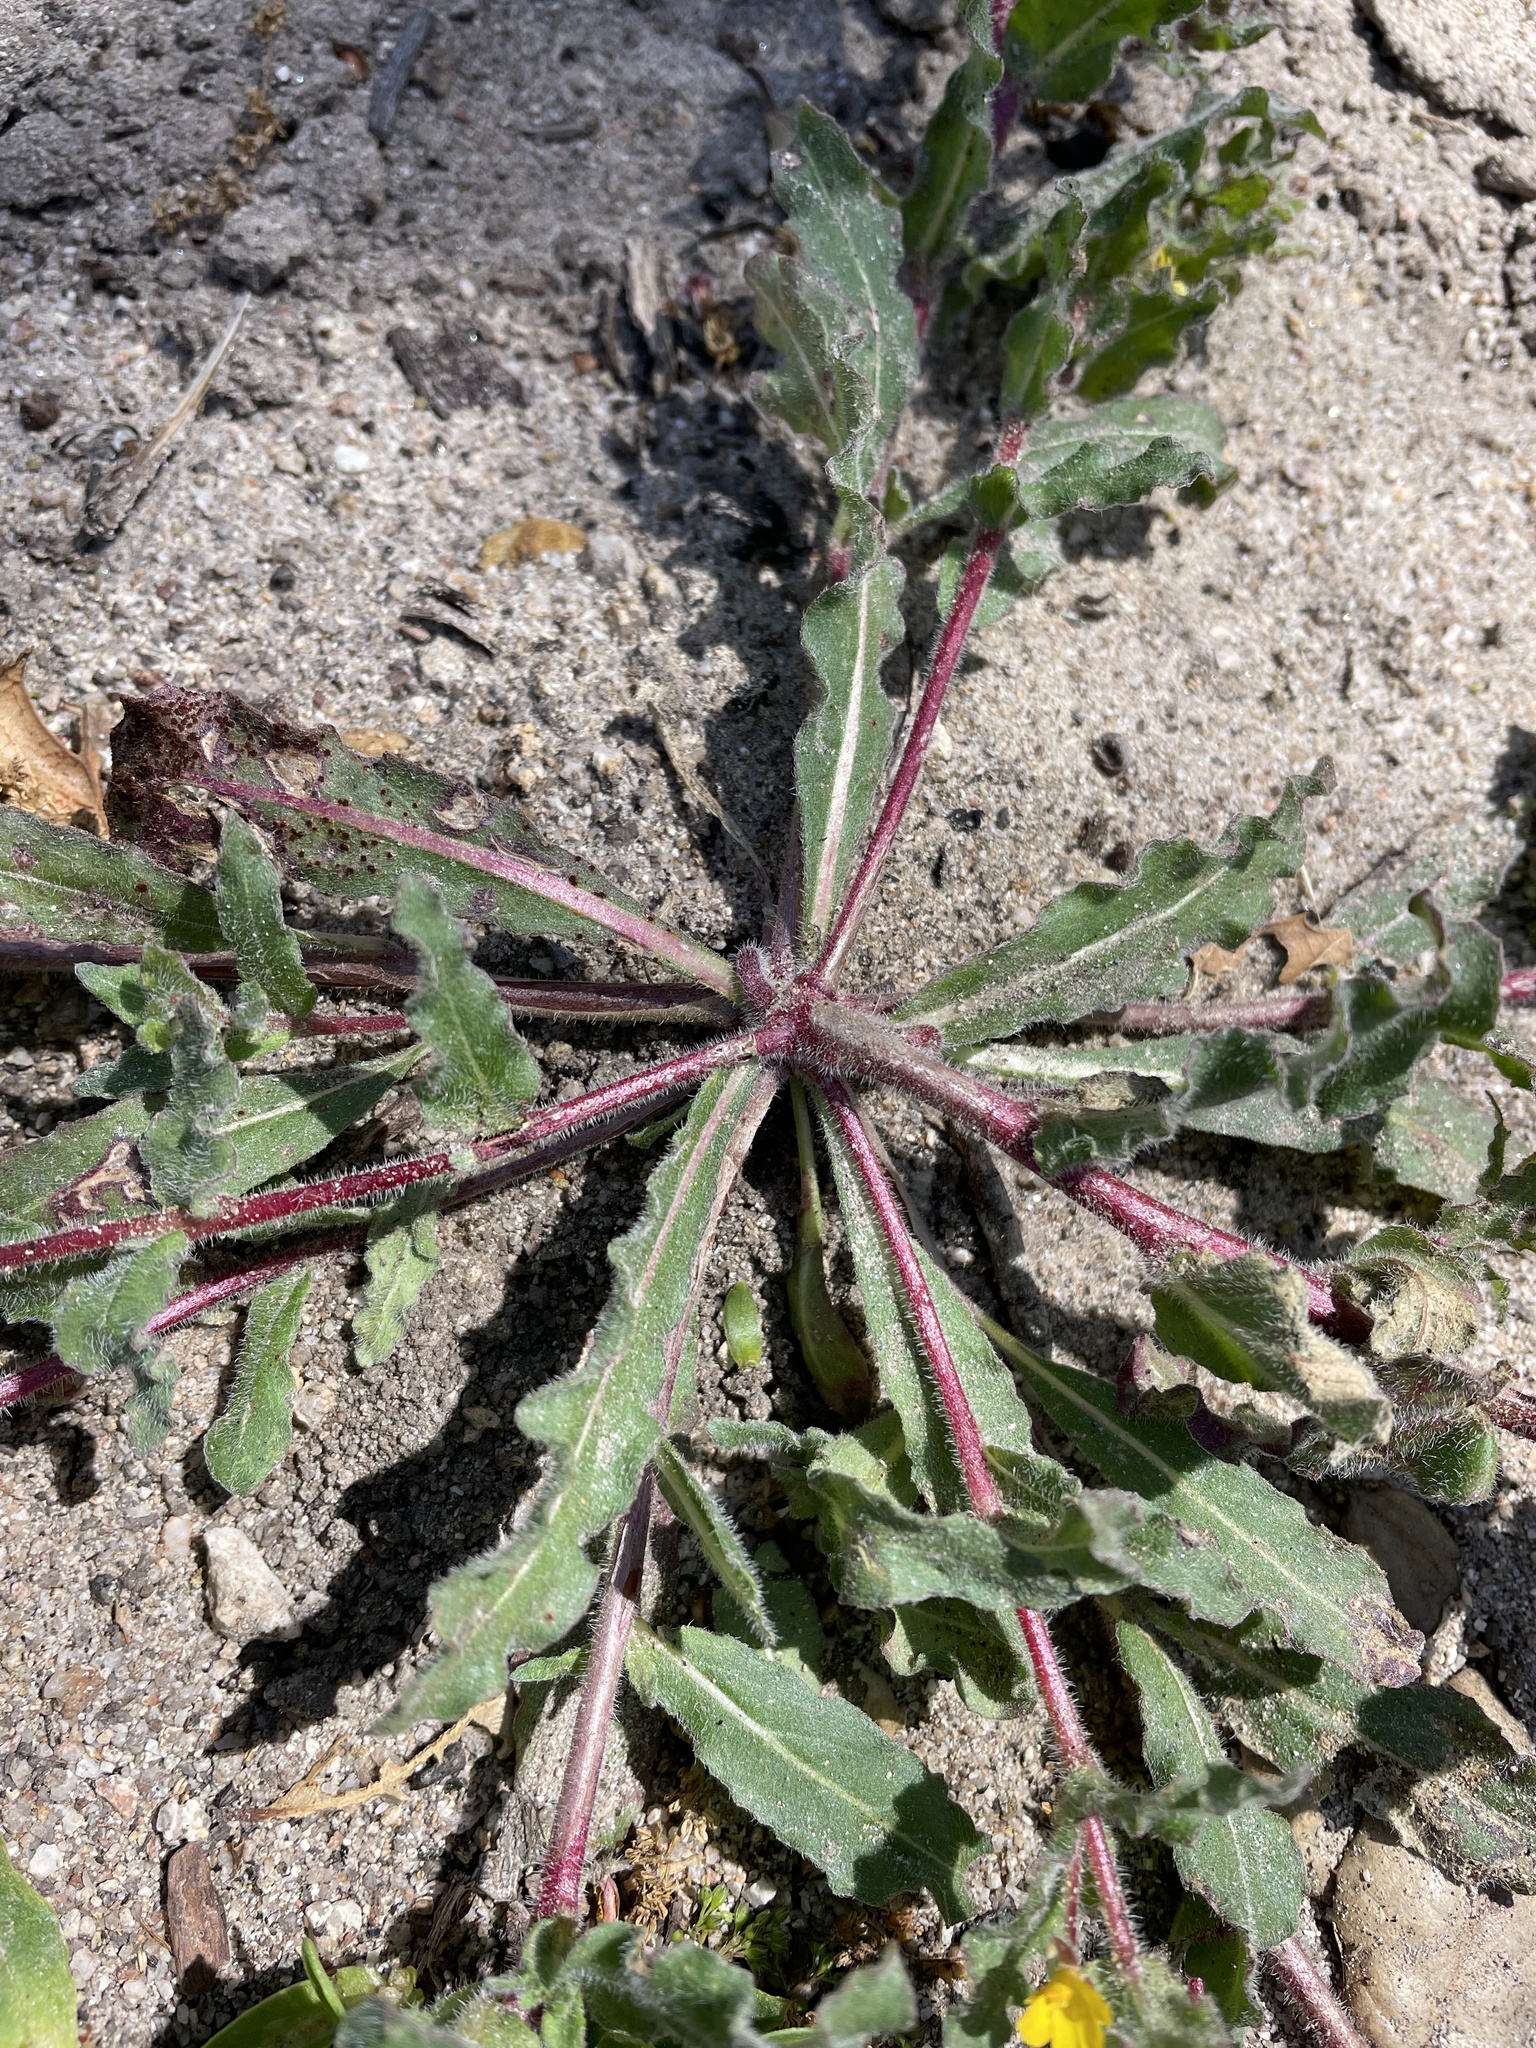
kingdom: Plantae
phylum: Tracheophyta
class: Magnoliopsida
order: Myrtales
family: Onagraceae
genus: Camissoniopsis
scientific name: Camissoniopsis micrantha
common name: Miniature suncup
